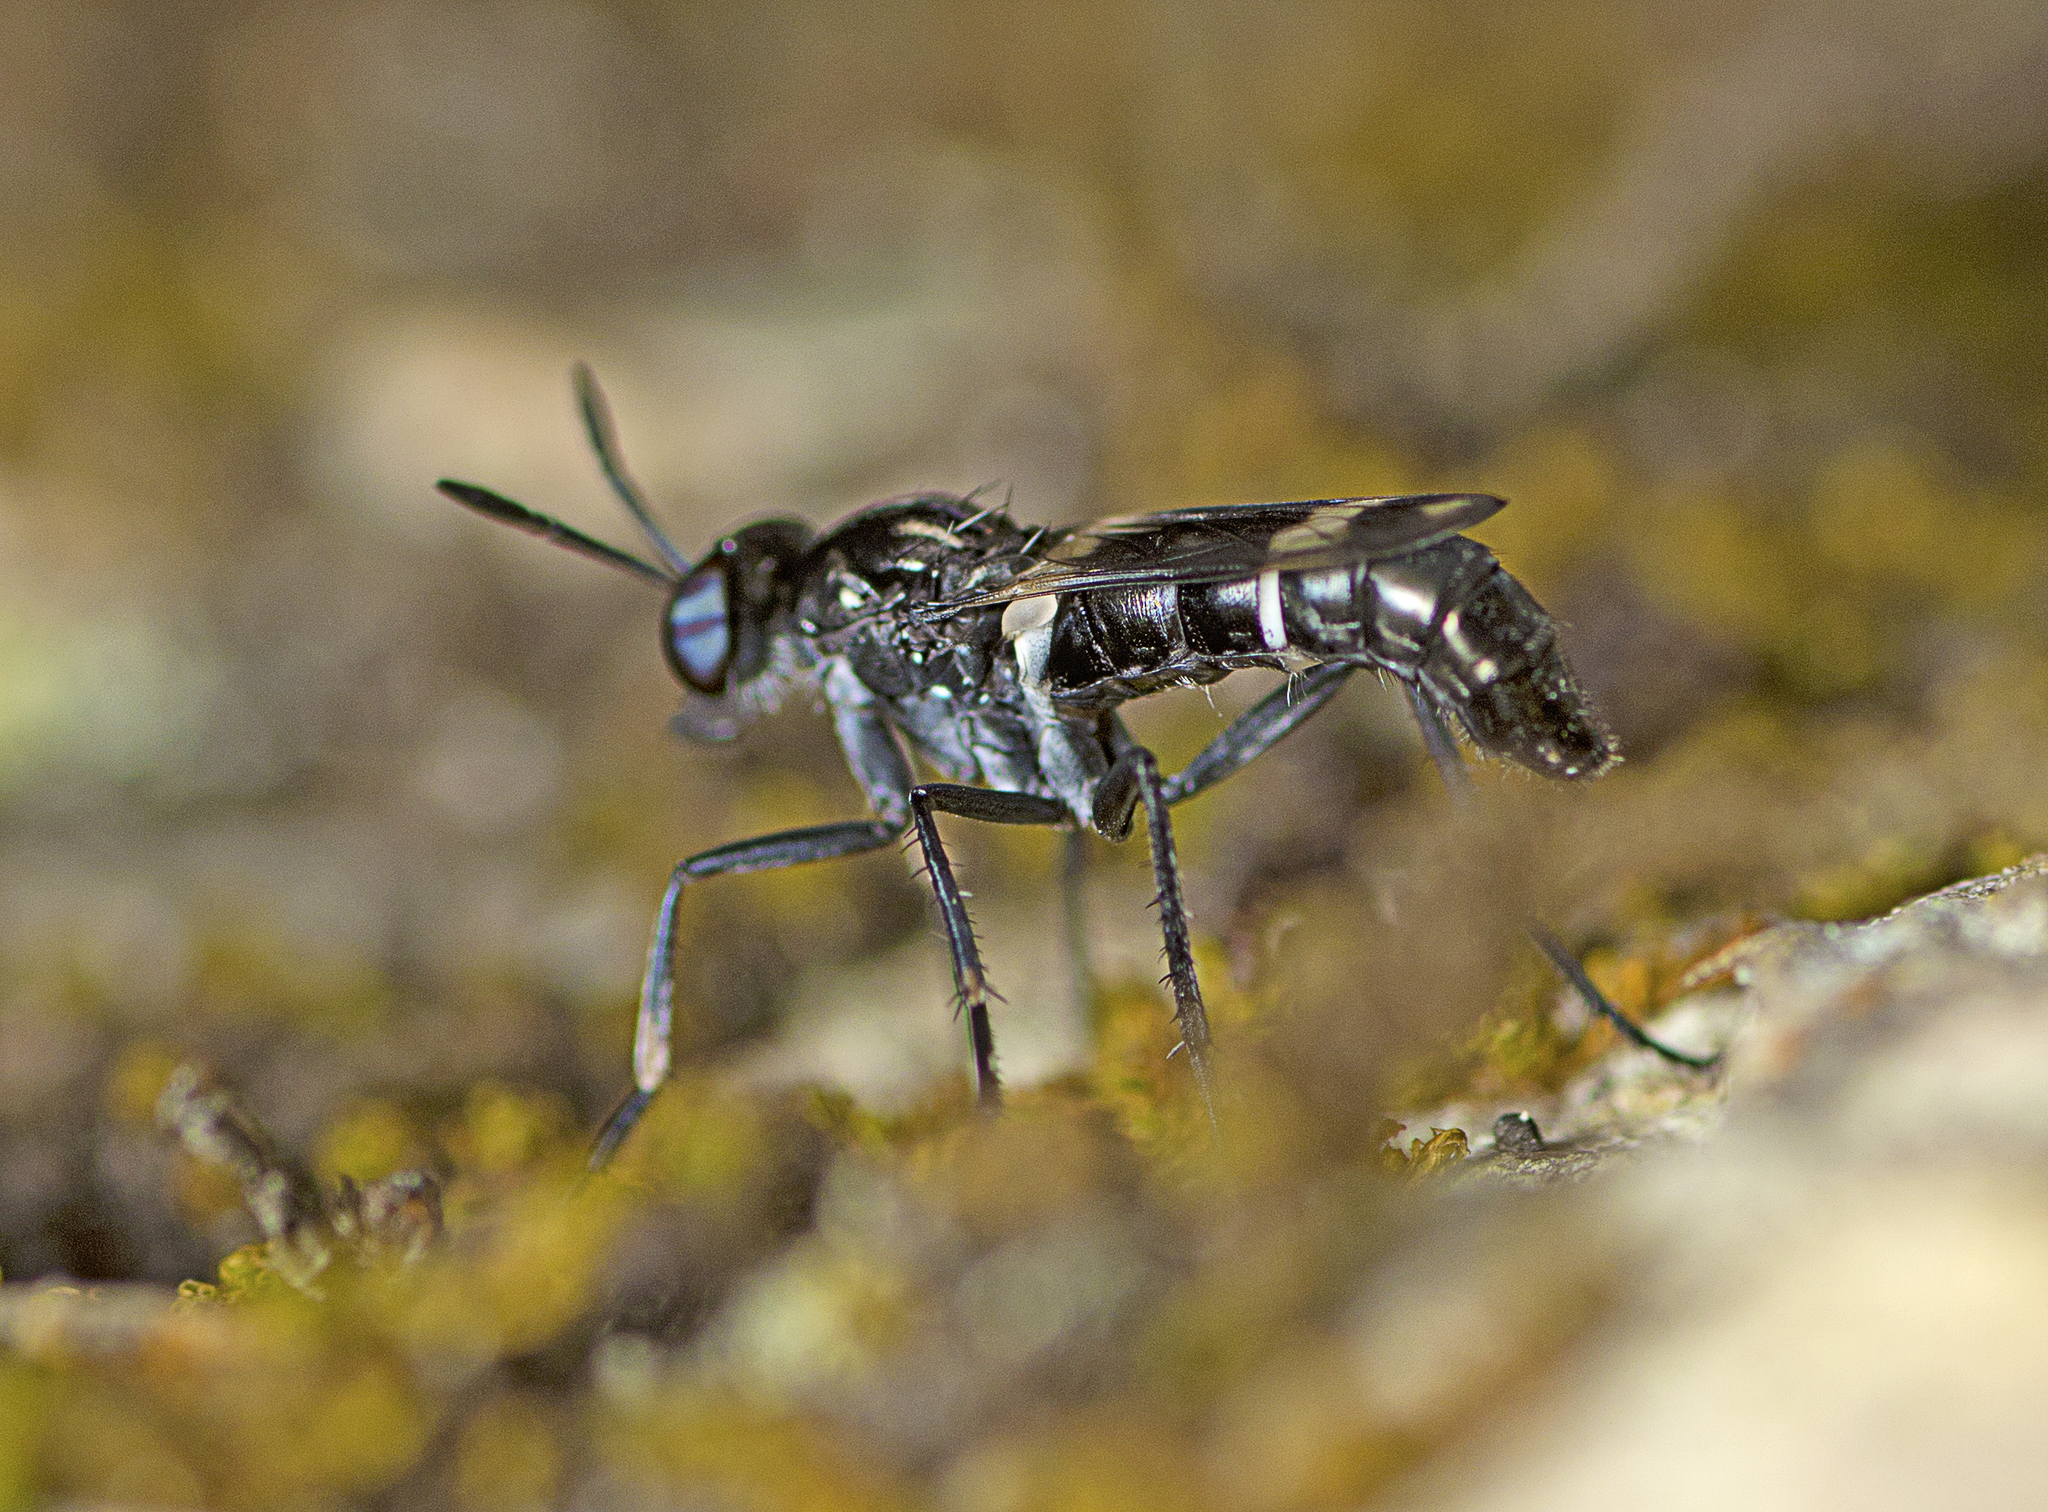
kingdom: Animalia
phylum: Arthropoda
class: Insecta
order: Diptera
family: Therevidae
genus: Agapophytus
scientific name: Agapophytus decorus
